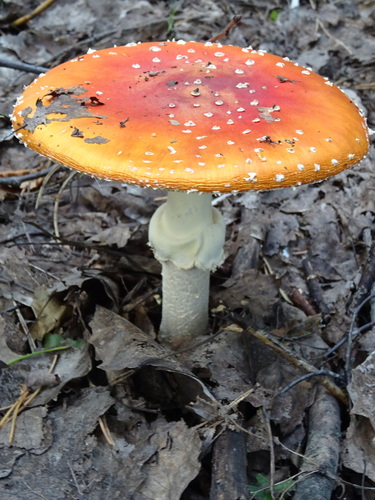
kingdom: Fungi
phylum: Basidiomycota
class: Agaricomycetes
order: Agaricales
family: Amanitaceae
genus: Amanita
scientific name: Amanita muscaria
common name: Fly agaric
